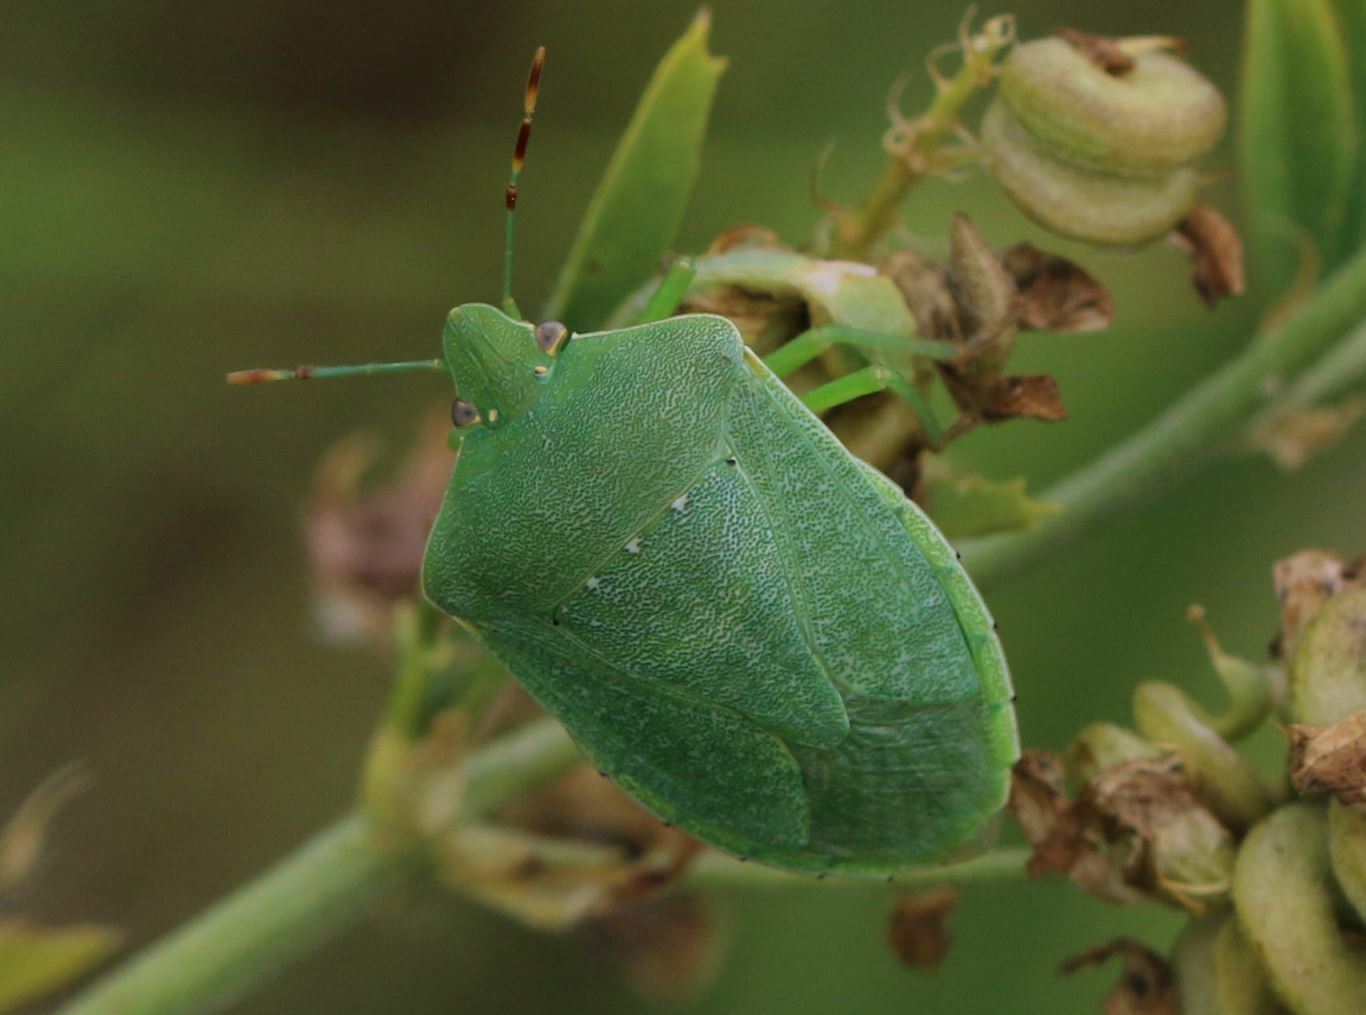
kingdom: Animalia
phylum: Arthropoda
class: Insecta
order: Hemiptera
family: Pentatomidae
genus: Nezara
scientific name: Nezara viridula
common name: Southern green stink bug
